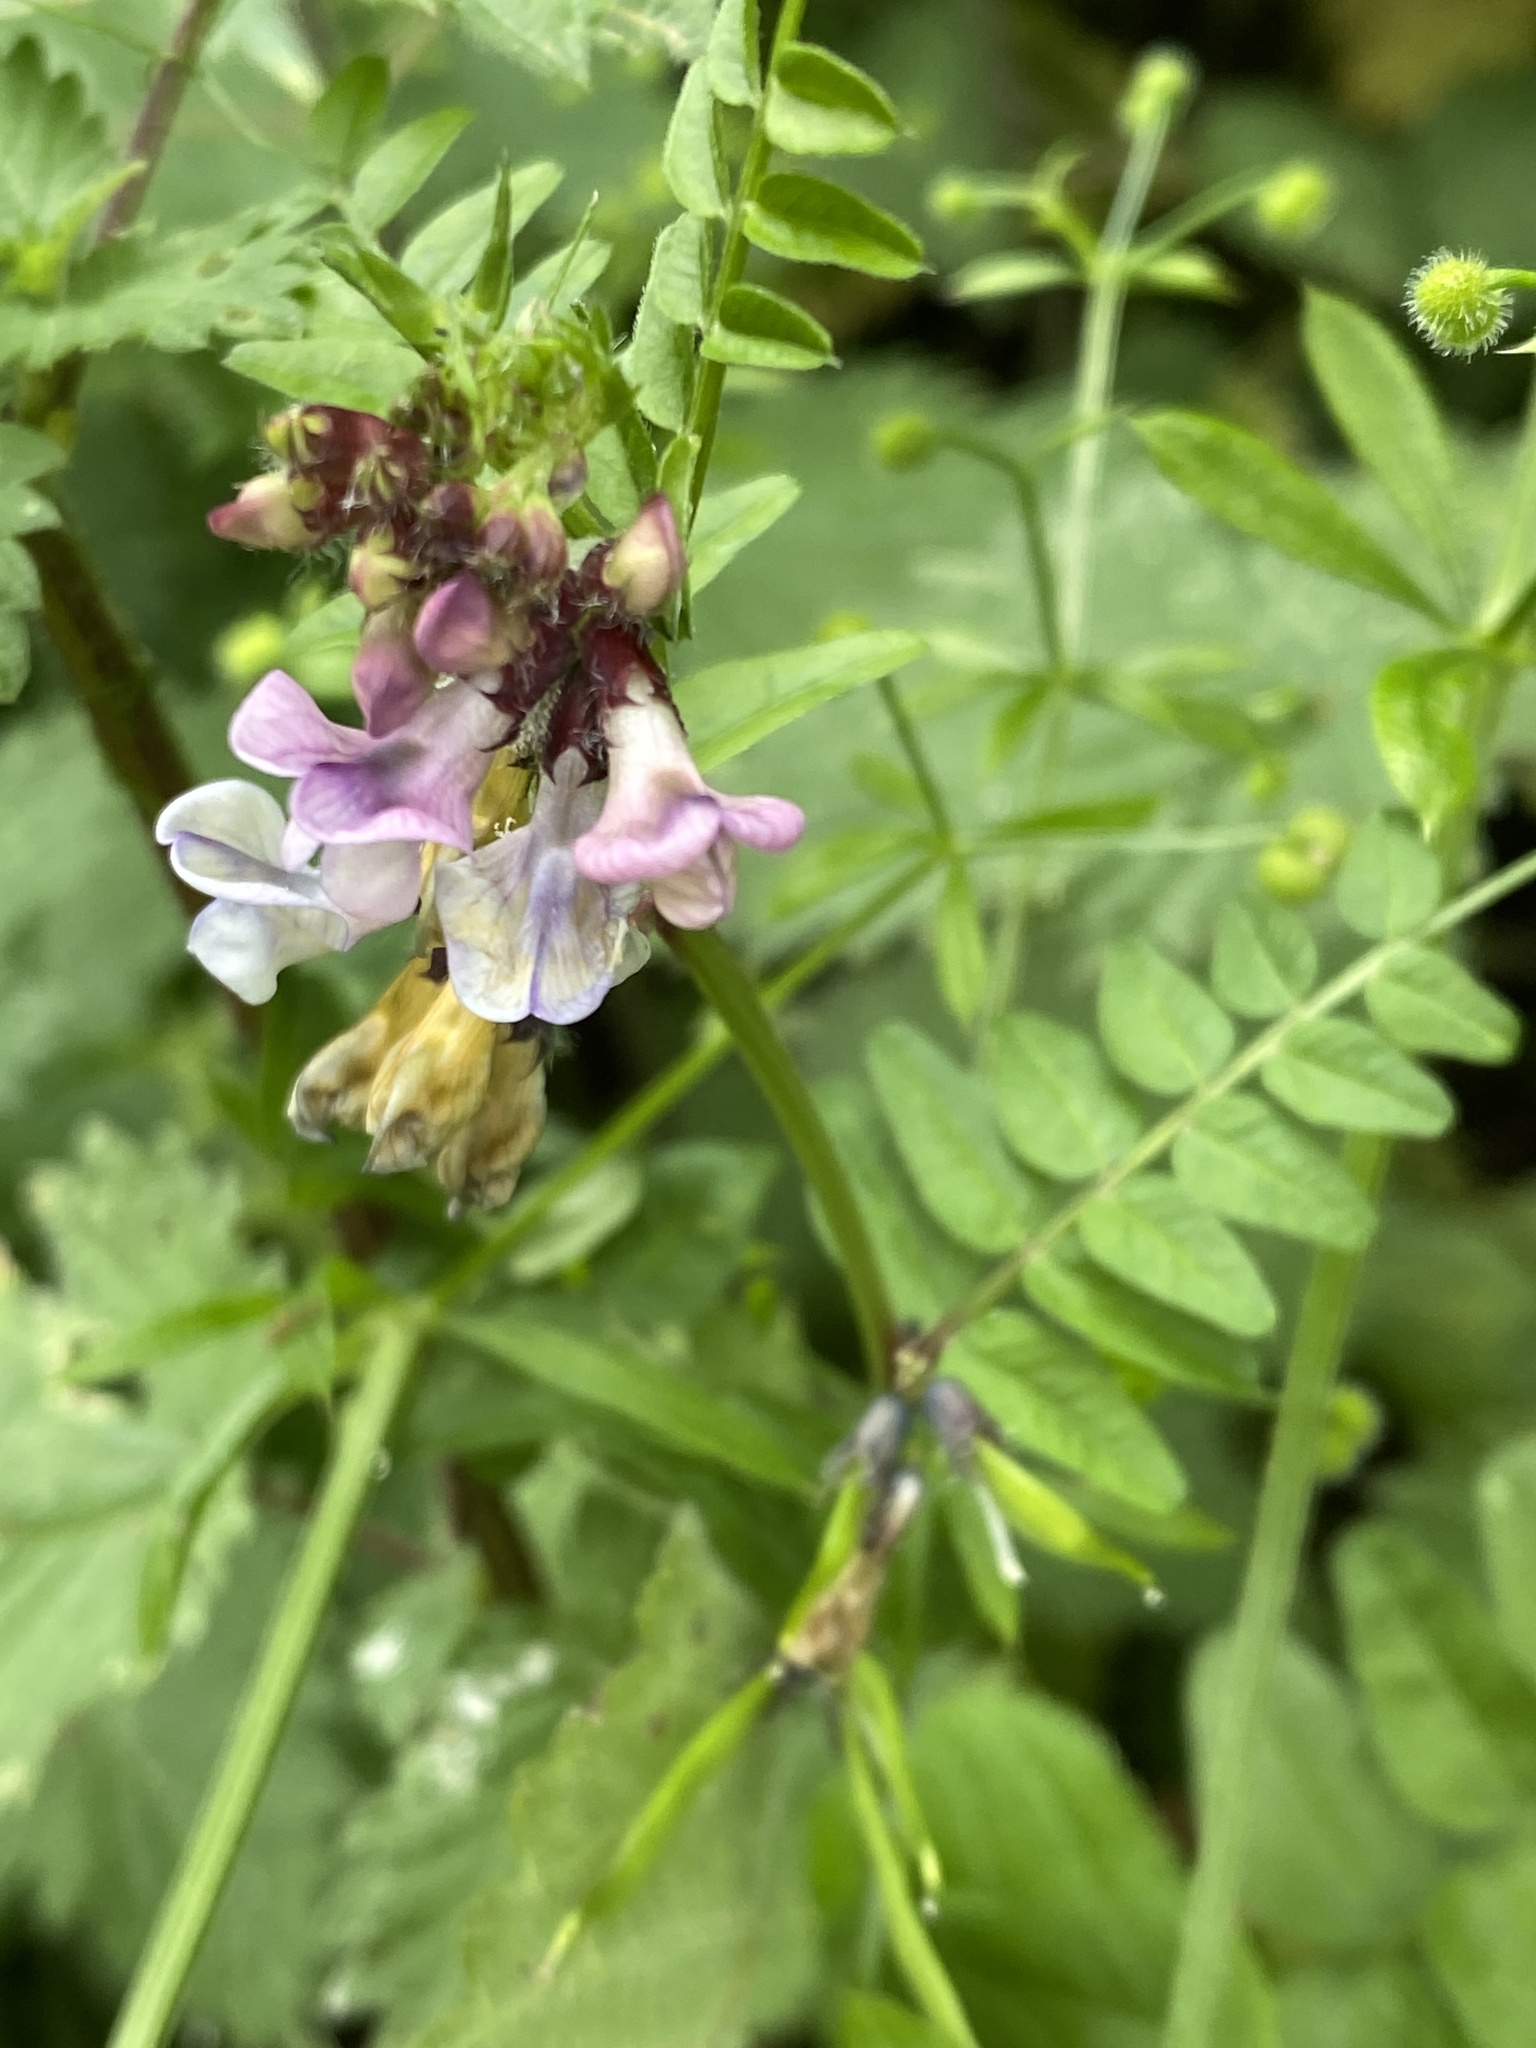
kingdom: Plantae
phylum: Tracheophyta
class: Magnoliopsida
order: Fabales
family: Fabaceae
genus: Vicia
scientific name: Vicia sepium
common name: Bush vetch
